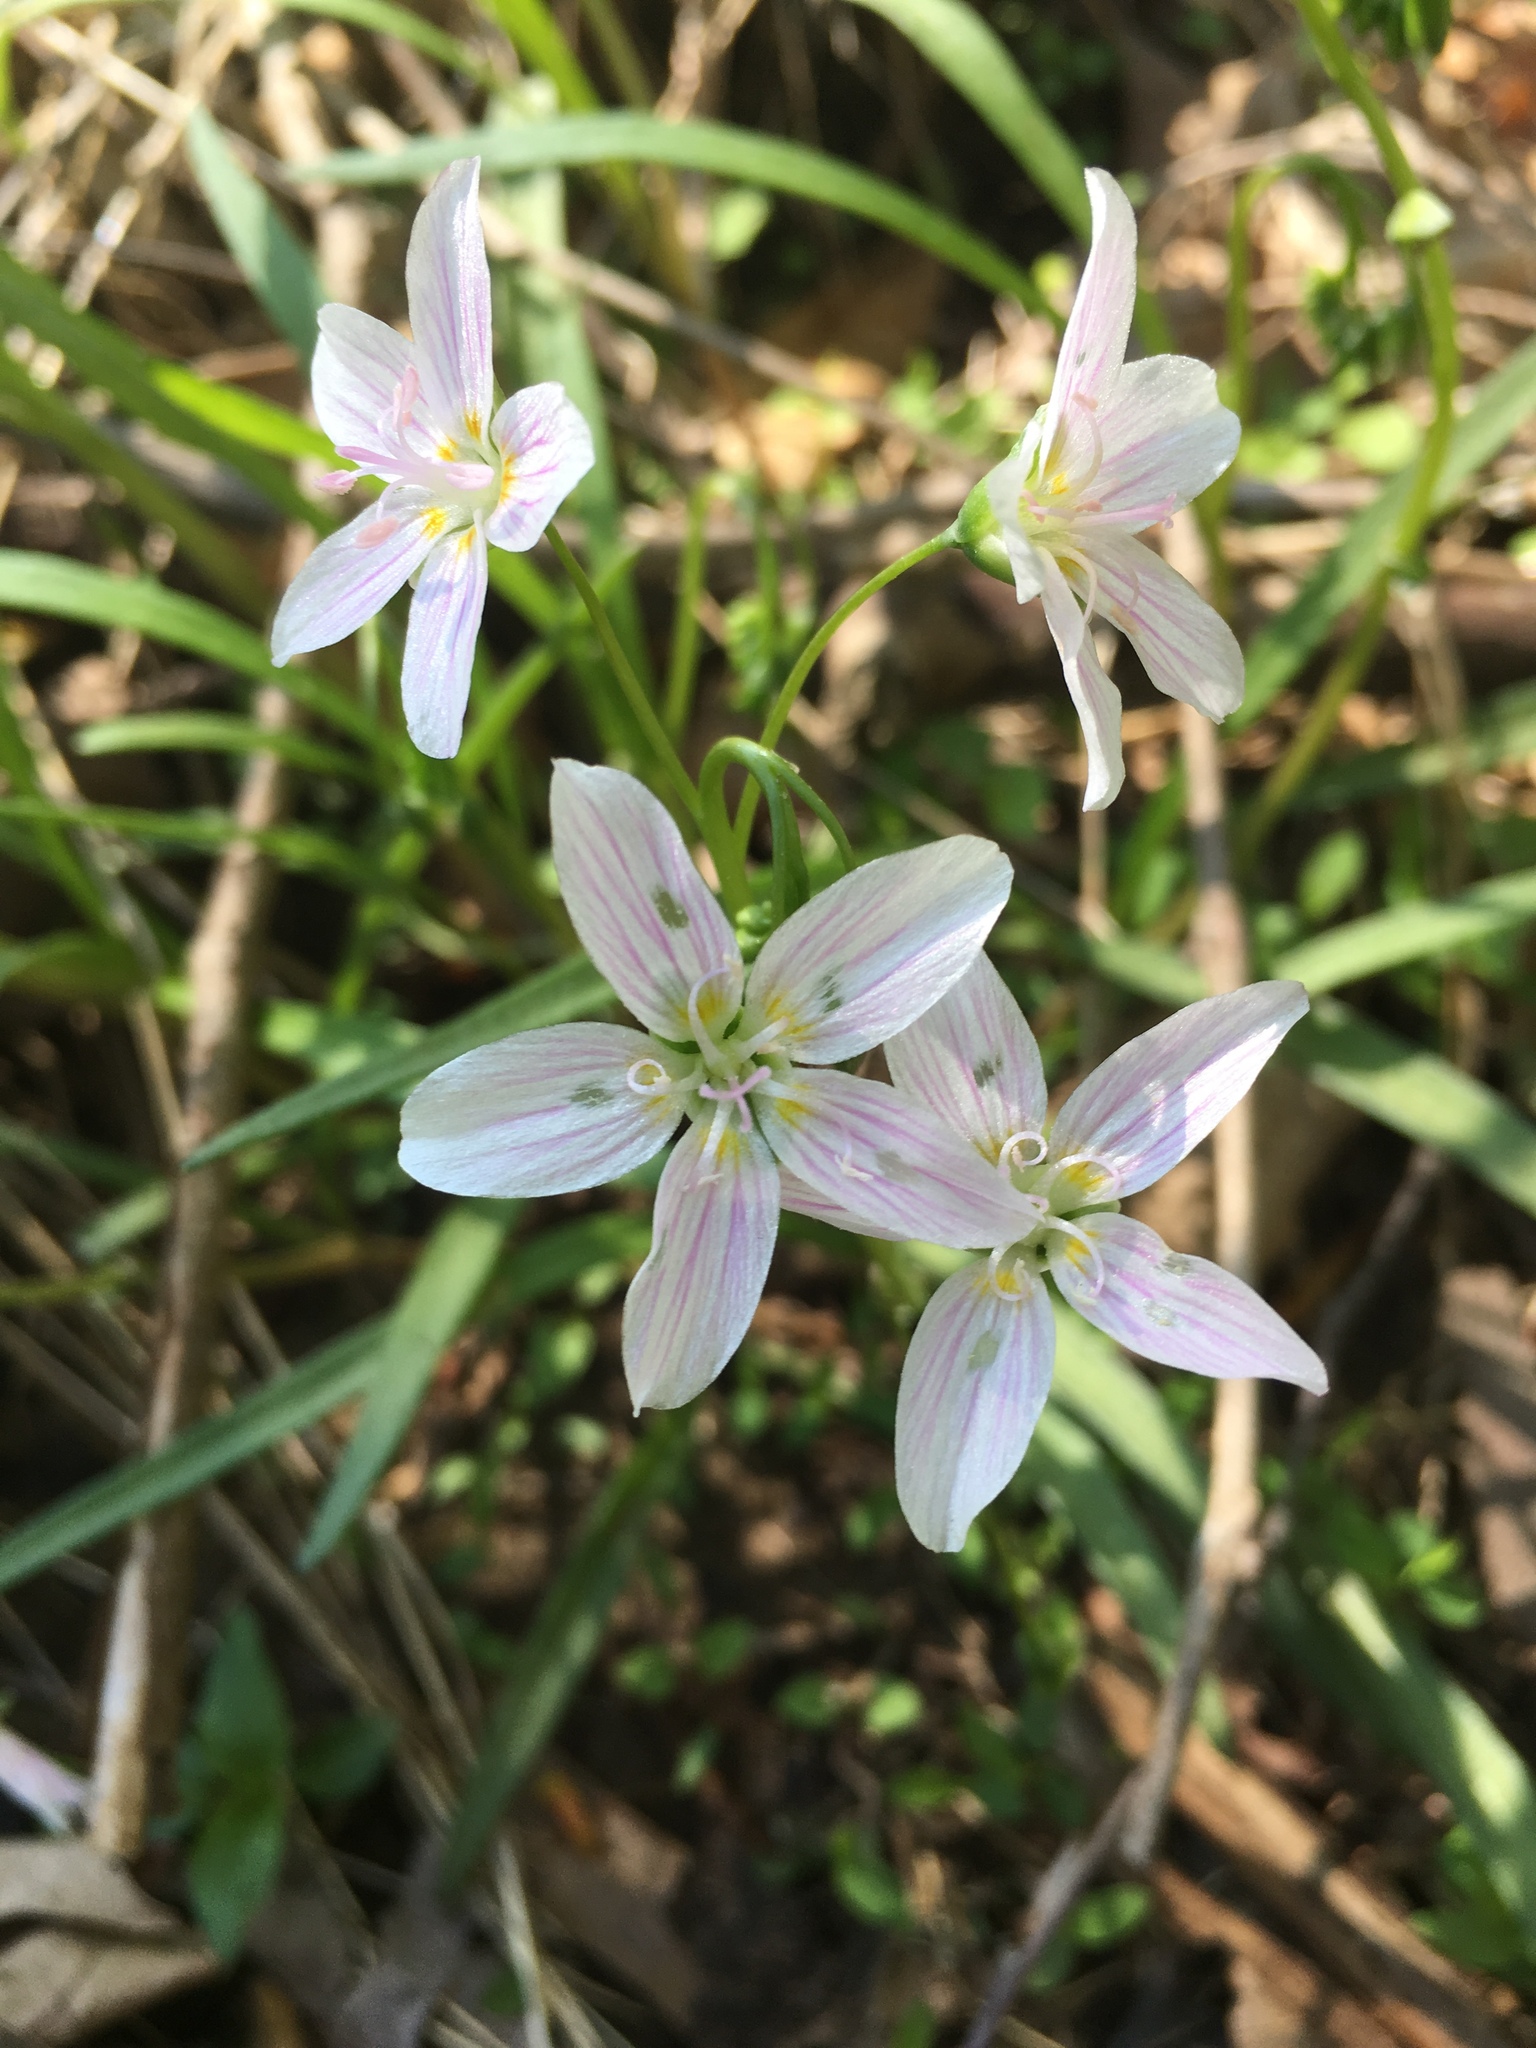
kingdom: Plantae
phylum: Tracheophyta
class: Magnoliopsida
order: Caryophyllales
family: Montiaceae
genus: Claytonia
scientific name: Claytonia virginica
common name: Virginia springbeauty
